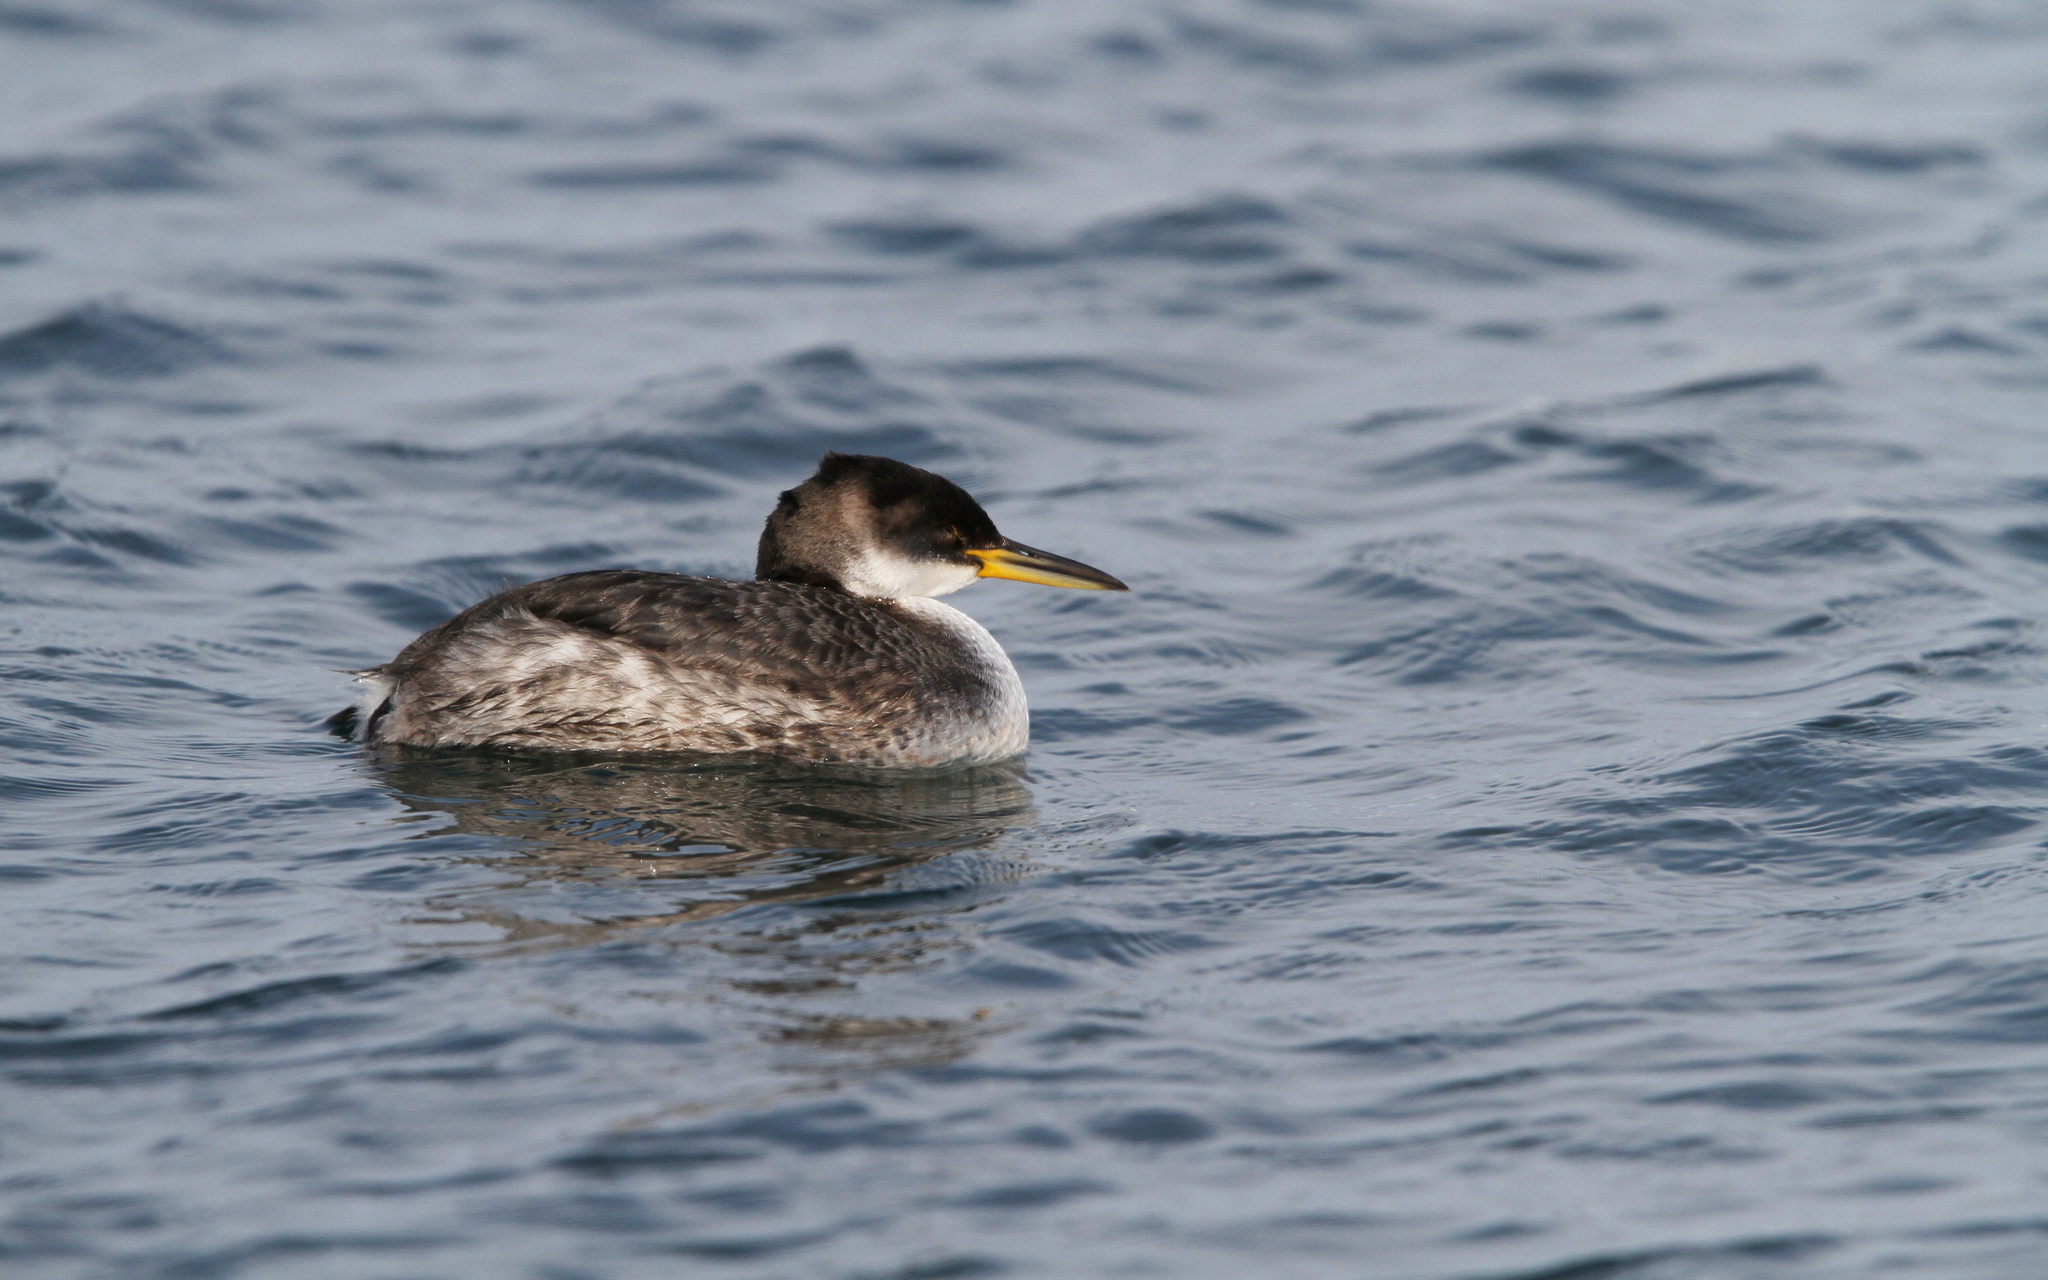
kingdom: Animalia
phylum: Chordata
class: Aves
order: Podicipediformes
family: Podicipedidae
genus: Podiceps
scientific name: Podiceps grisegena
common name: Red-necked grebe
